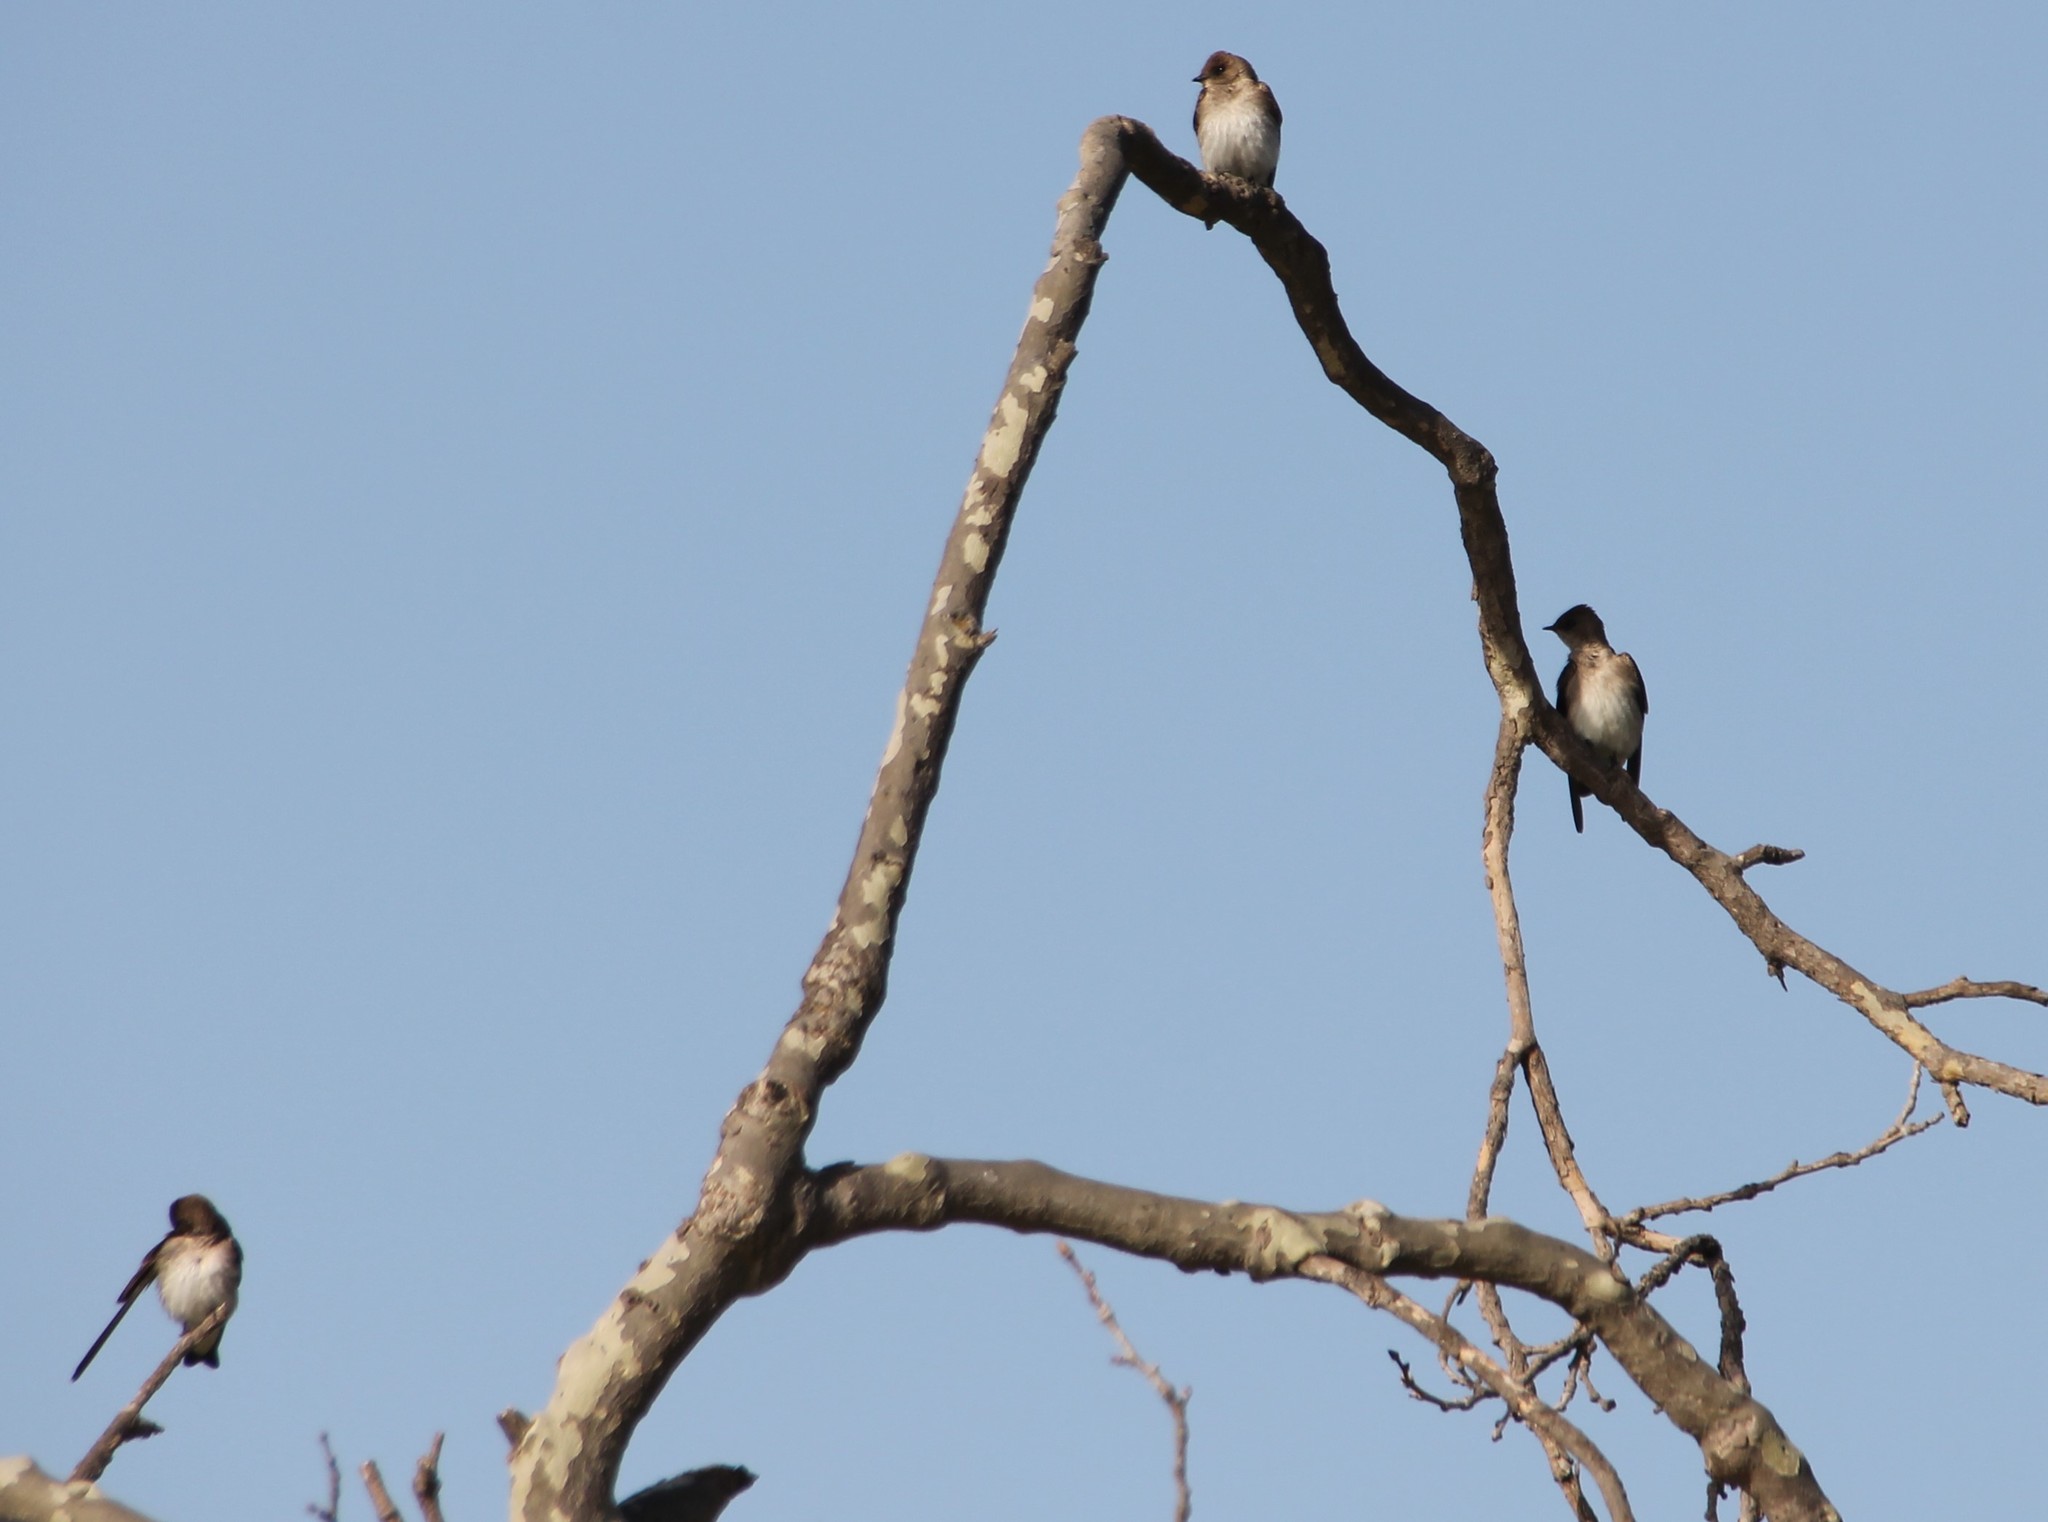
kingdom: Animalia
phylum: Chordata
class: Aves
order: Passeriformes
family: Hirundinidae
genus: Stelgidopteryx
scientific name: Stelgidopteryx serripennis
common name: Northern rough-winged swallow
